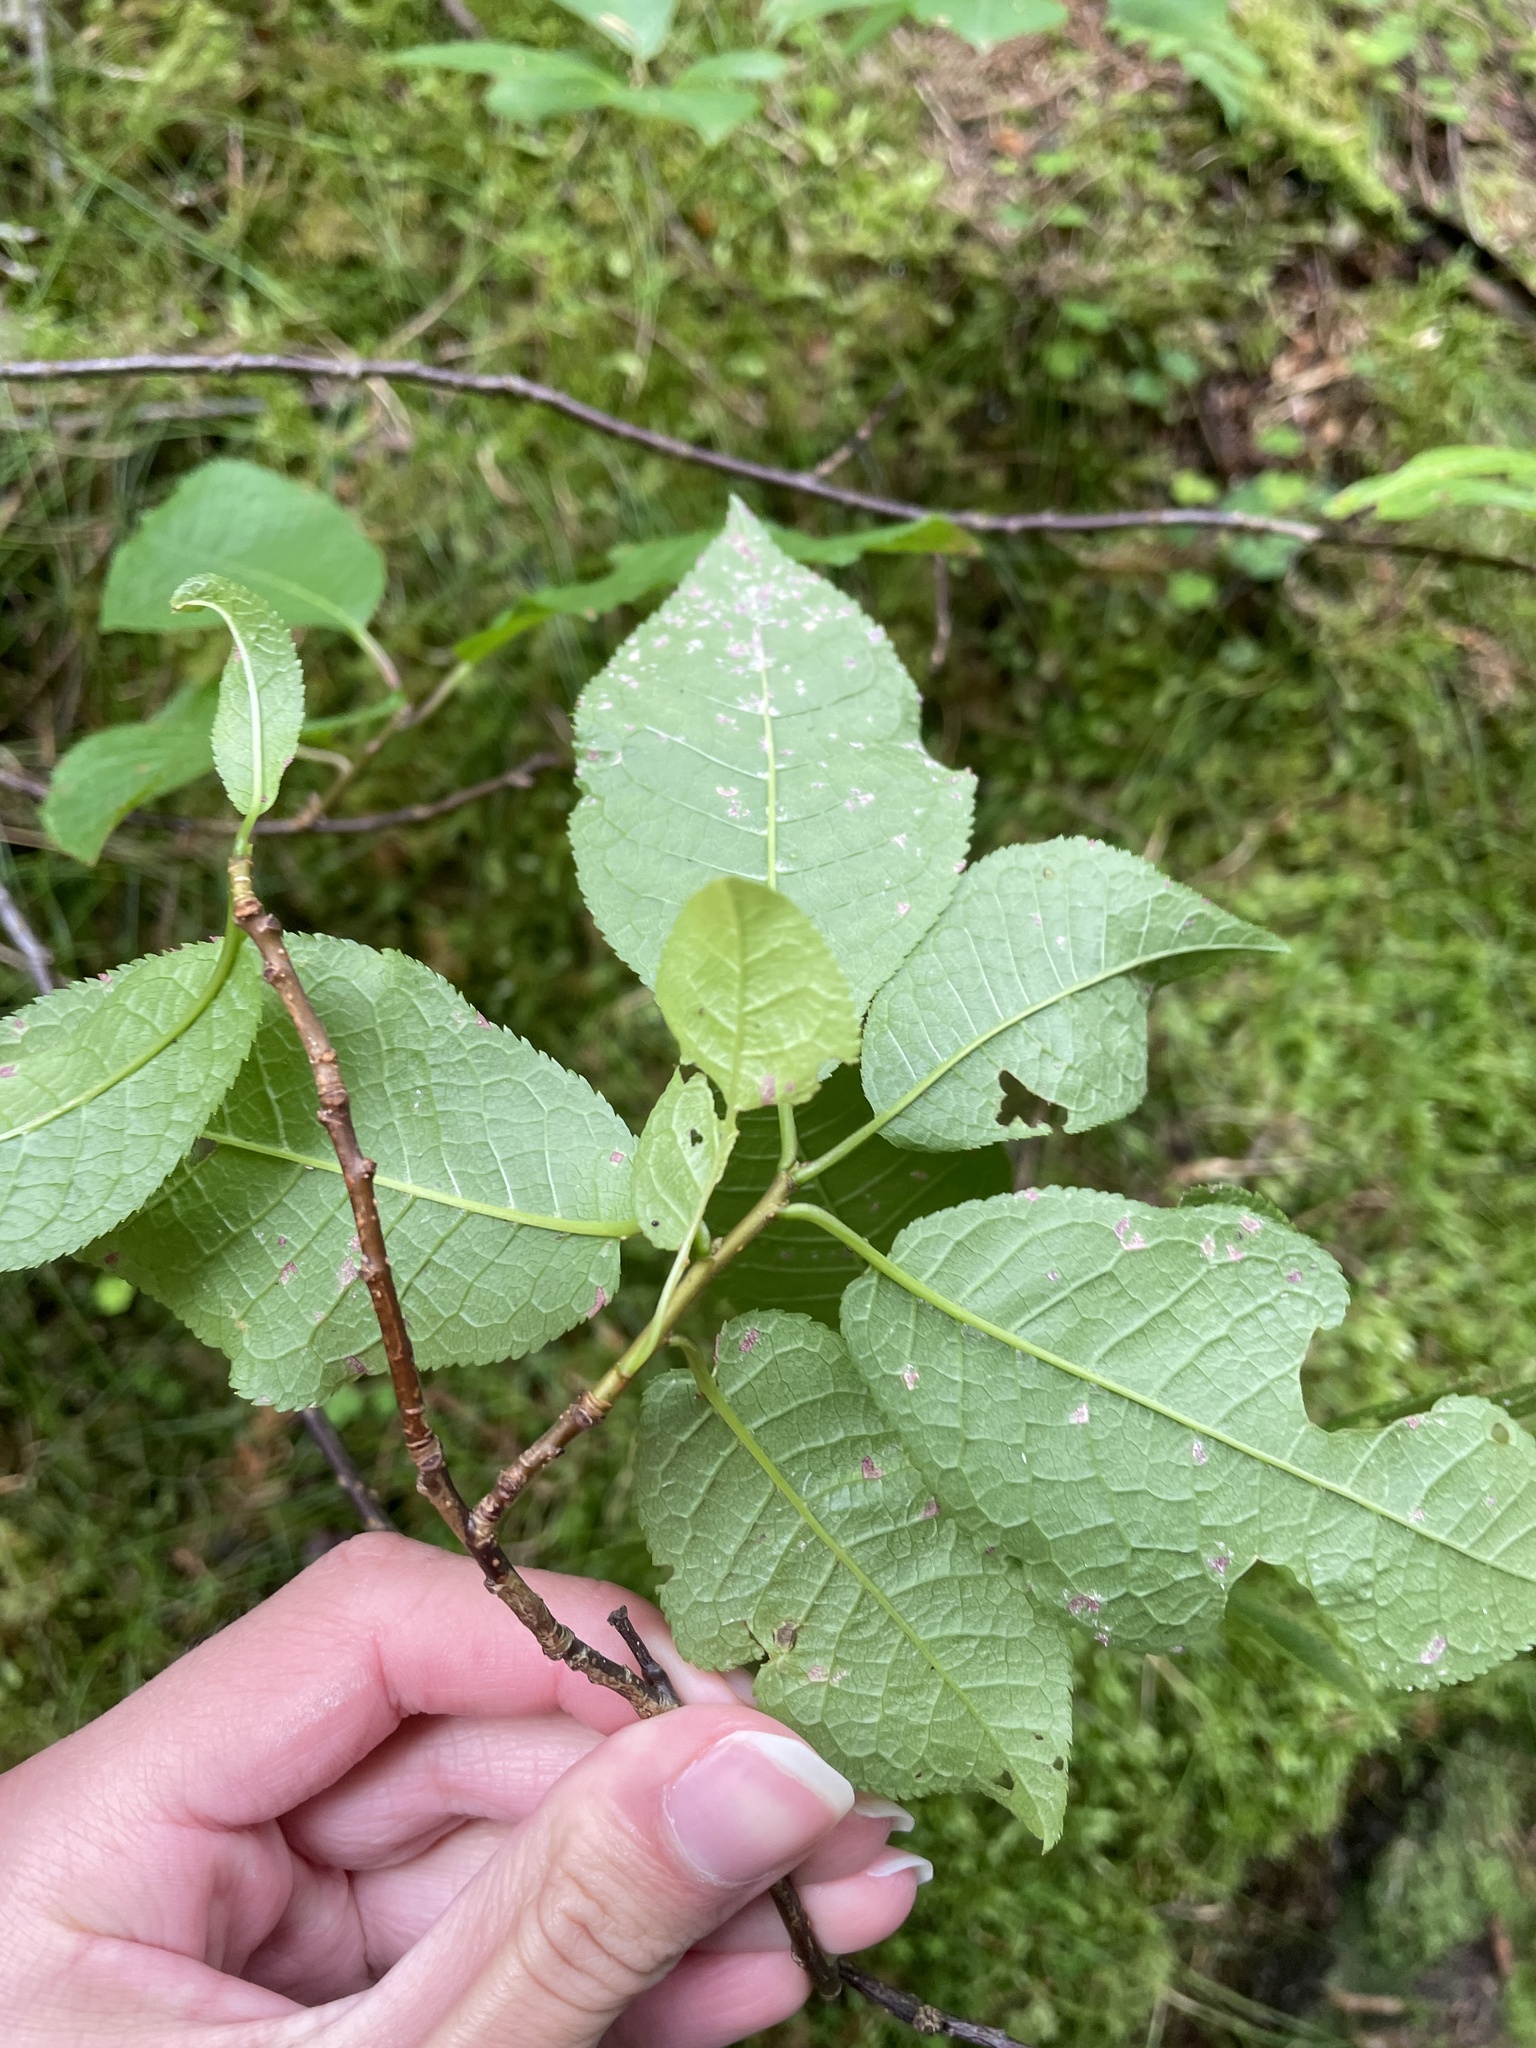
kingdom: Plantae
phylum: Tracheophyta
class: Magnoliopsida
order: Rosales
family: Rosaceae
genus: Prunus
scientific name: Prunus padus
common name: Bird cherry
